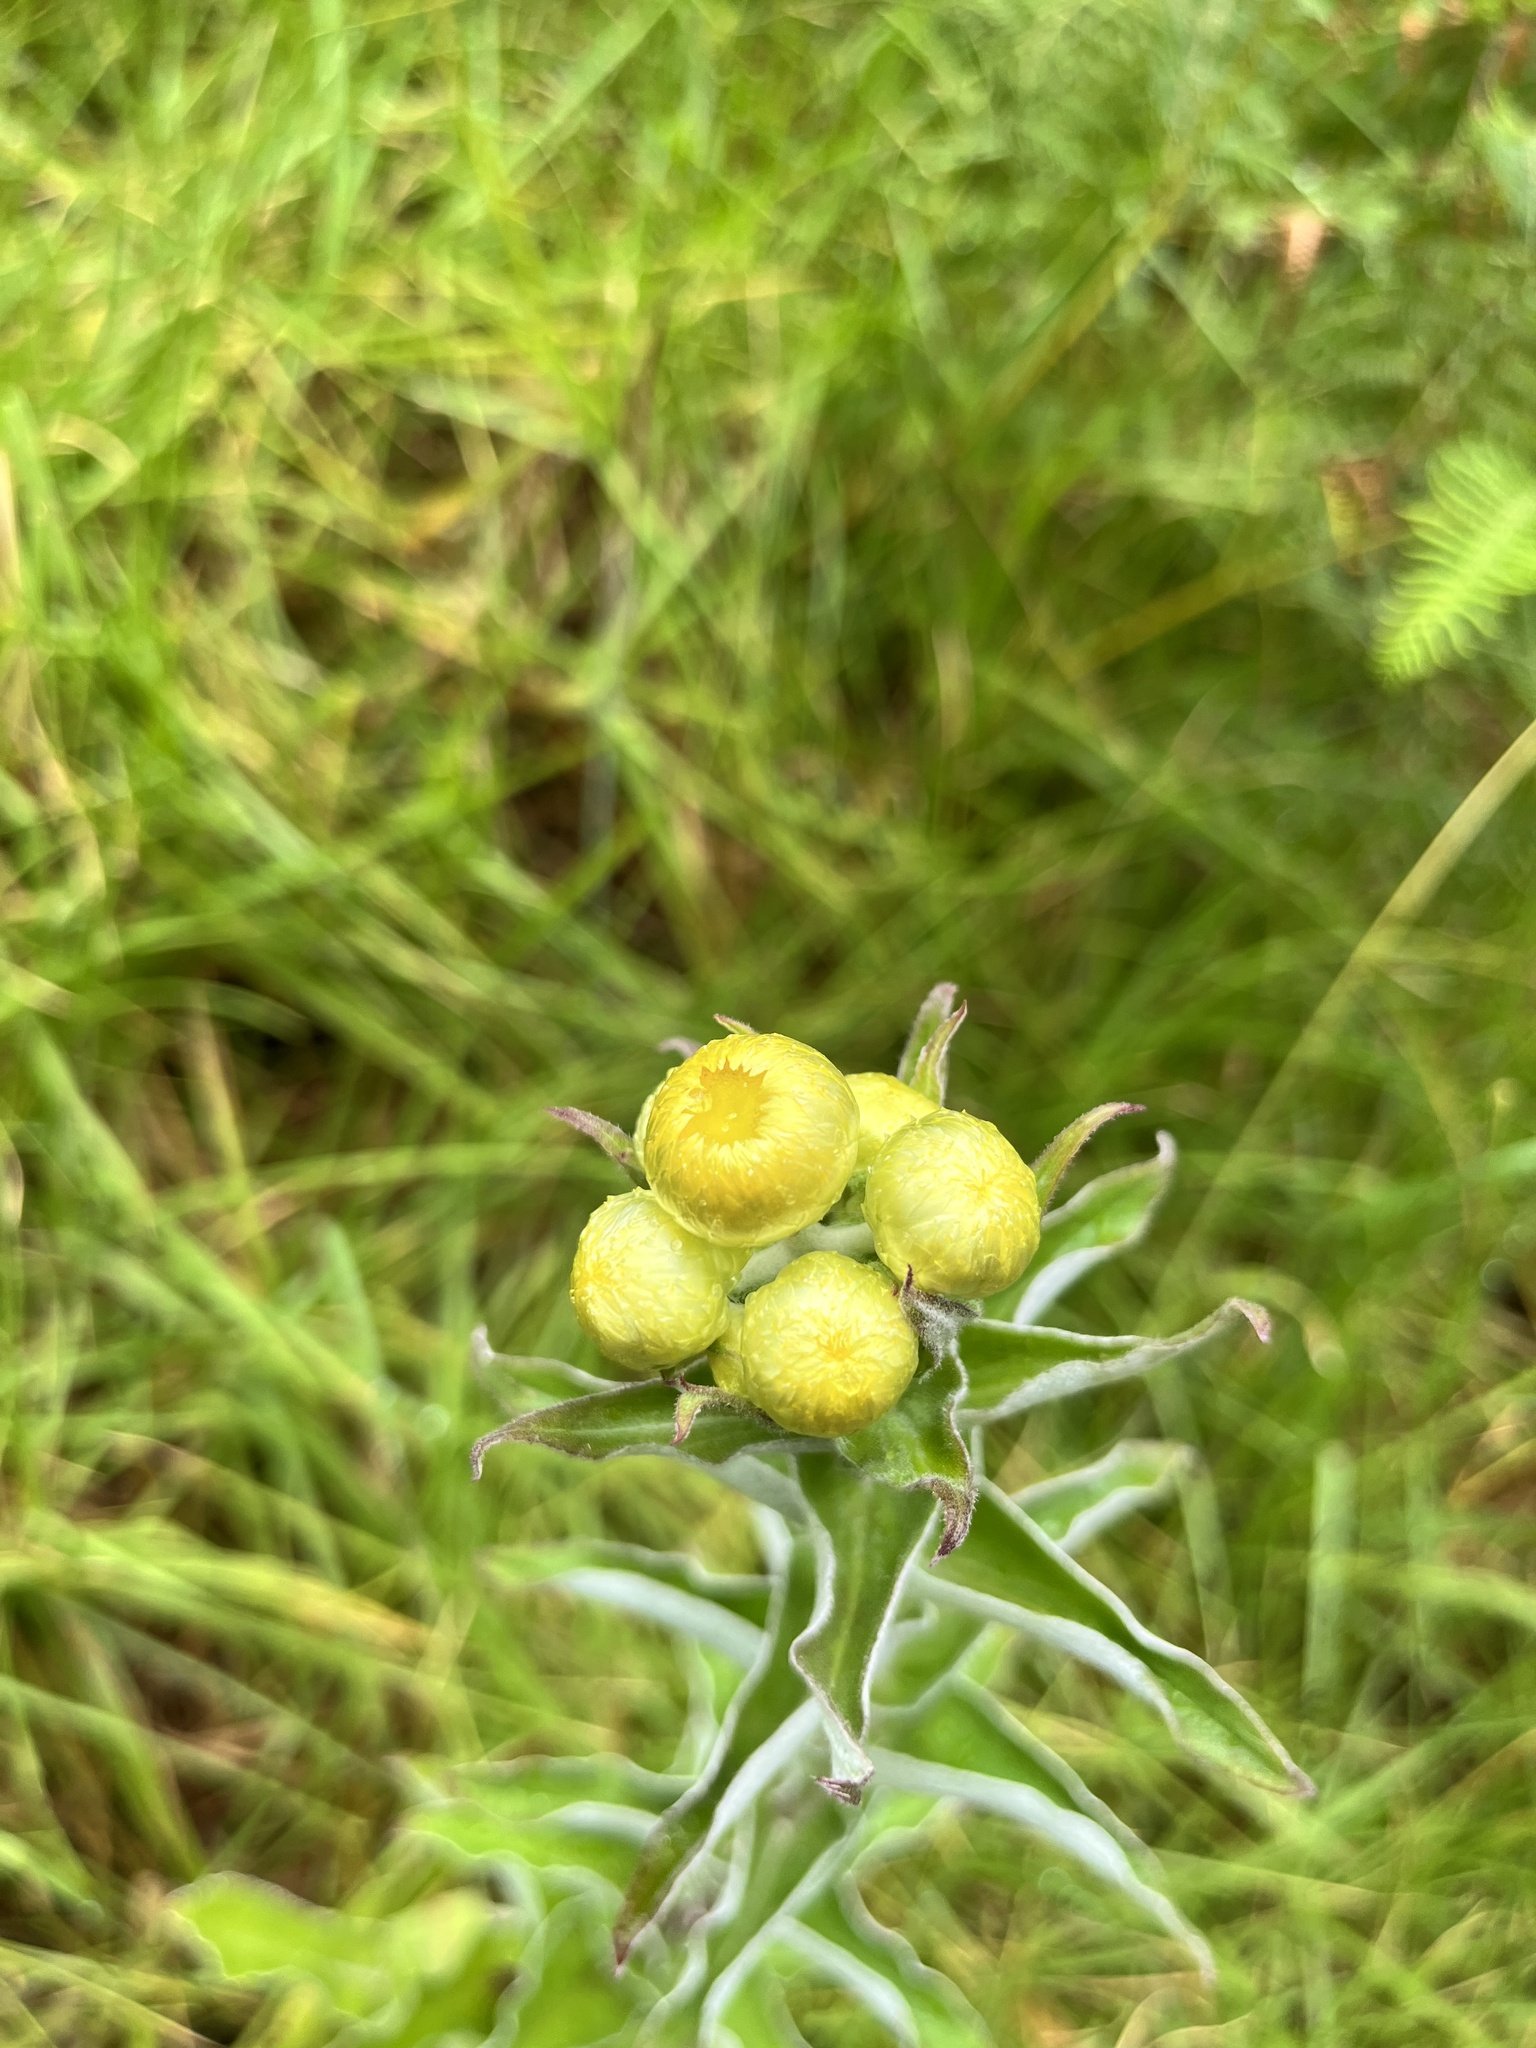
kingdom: Plantae
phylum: Tracheophyta
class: Magnoliopsida
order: Asterales
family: Asteraceae
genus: Helichrysum
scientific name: Helichrysum foetidum
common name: Stinking everlasting
